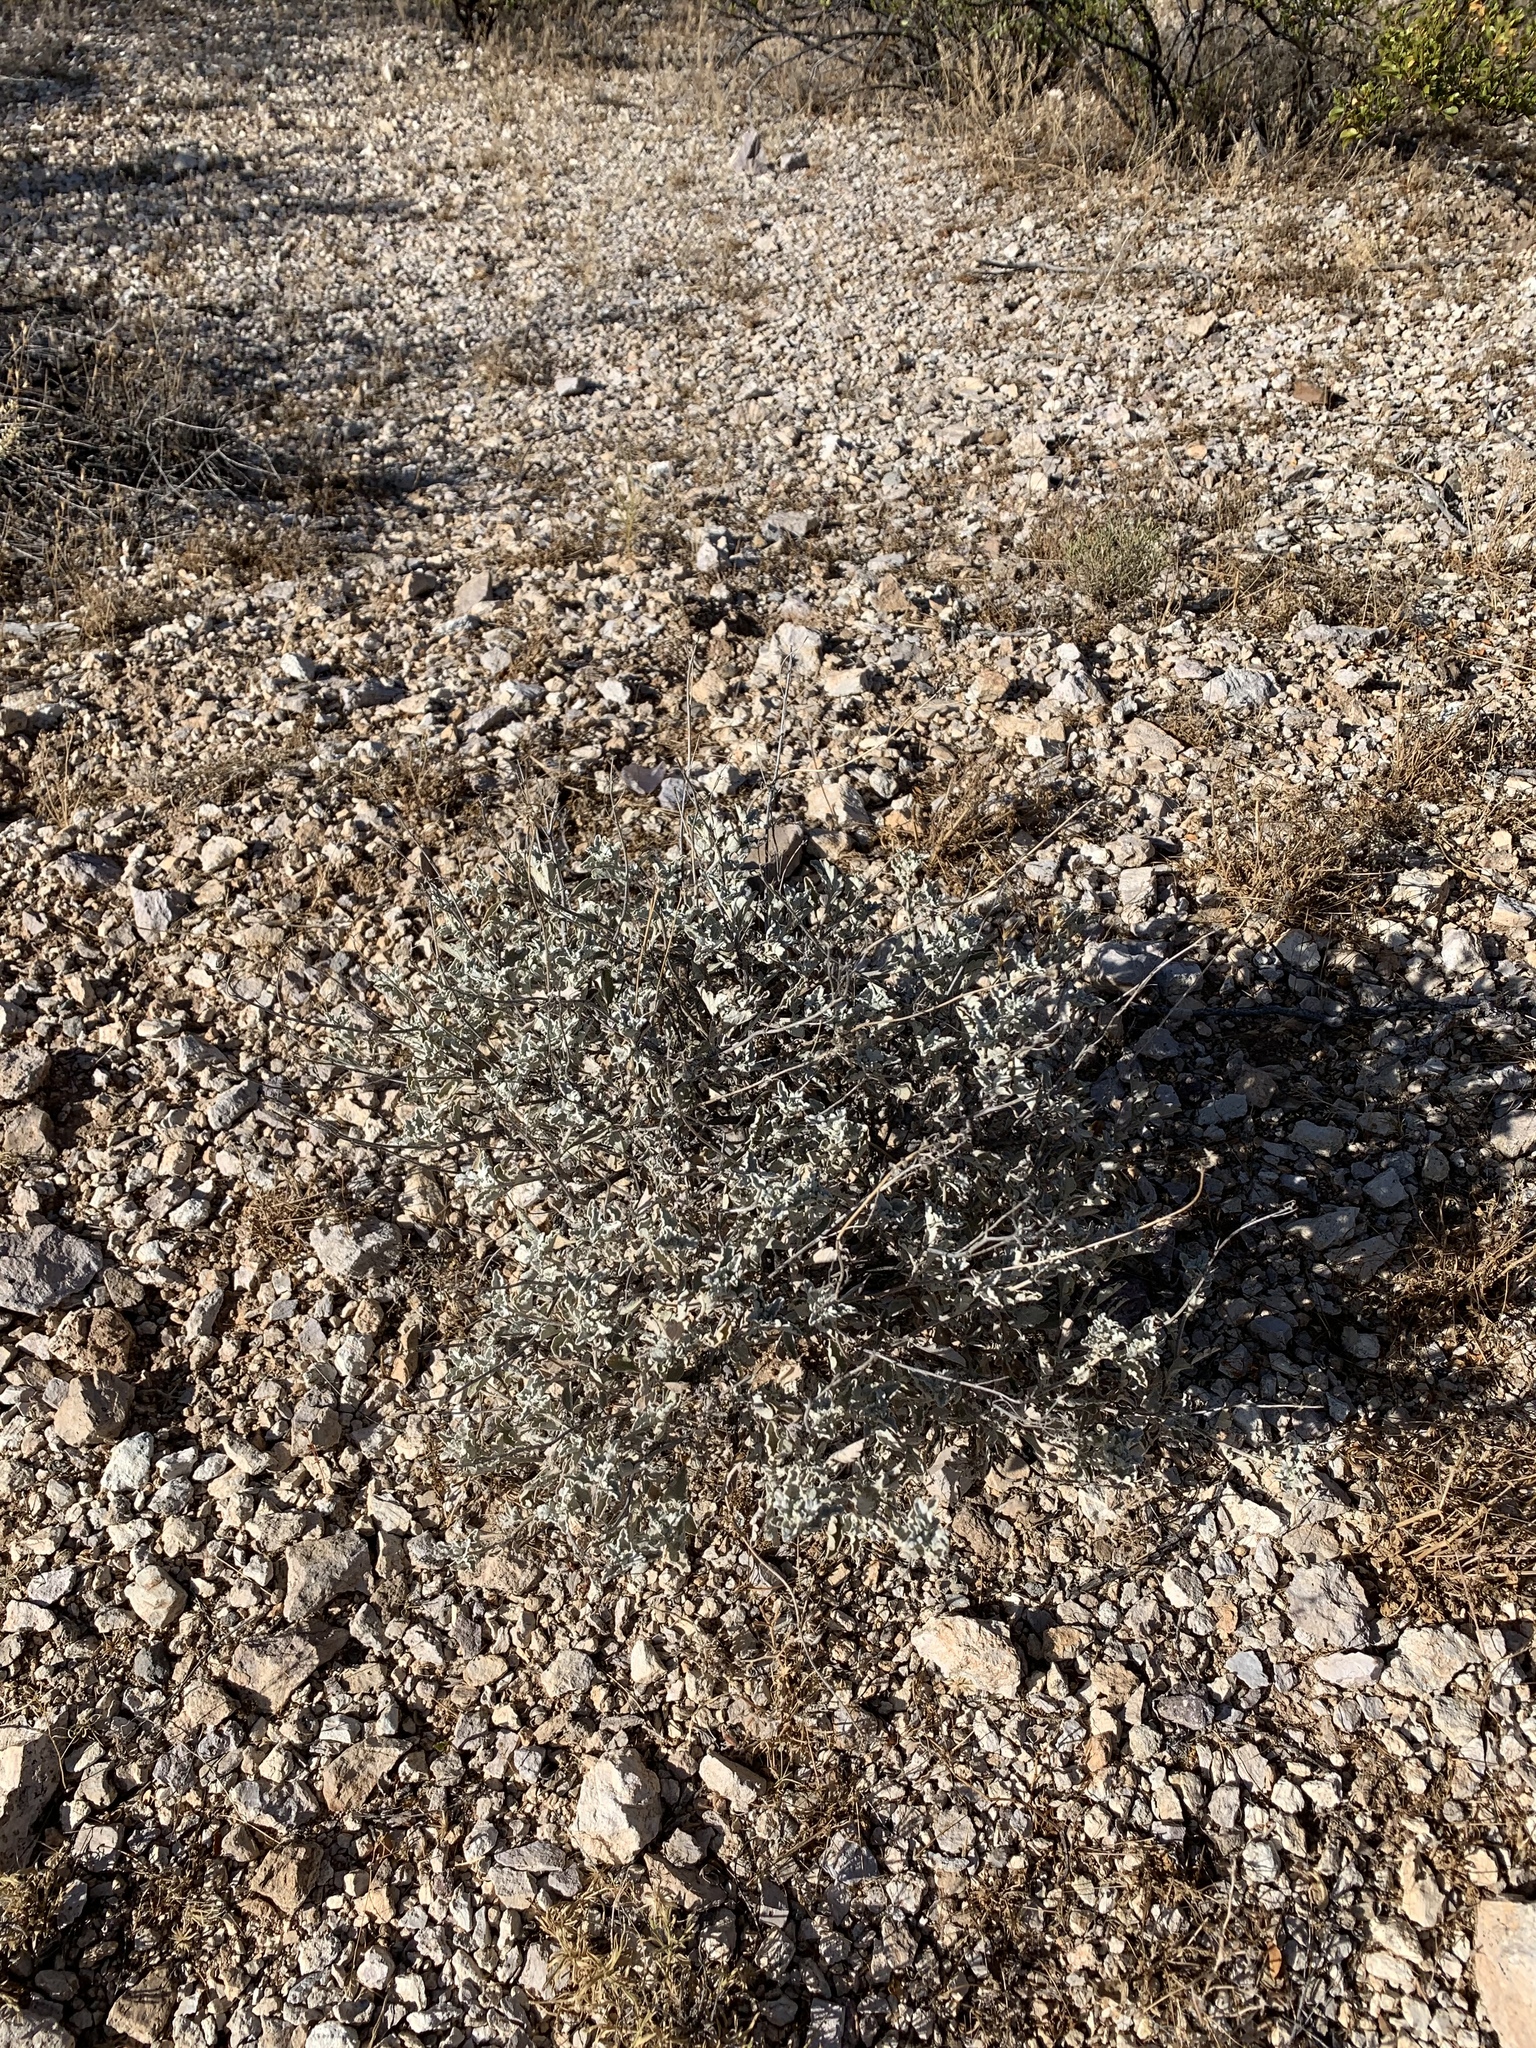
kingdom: Plantae
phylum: Tracheophyta
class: Magnoliopsida
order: Asterales
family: Asteraceae
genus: Parthenium
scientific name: Parthenium incanum
